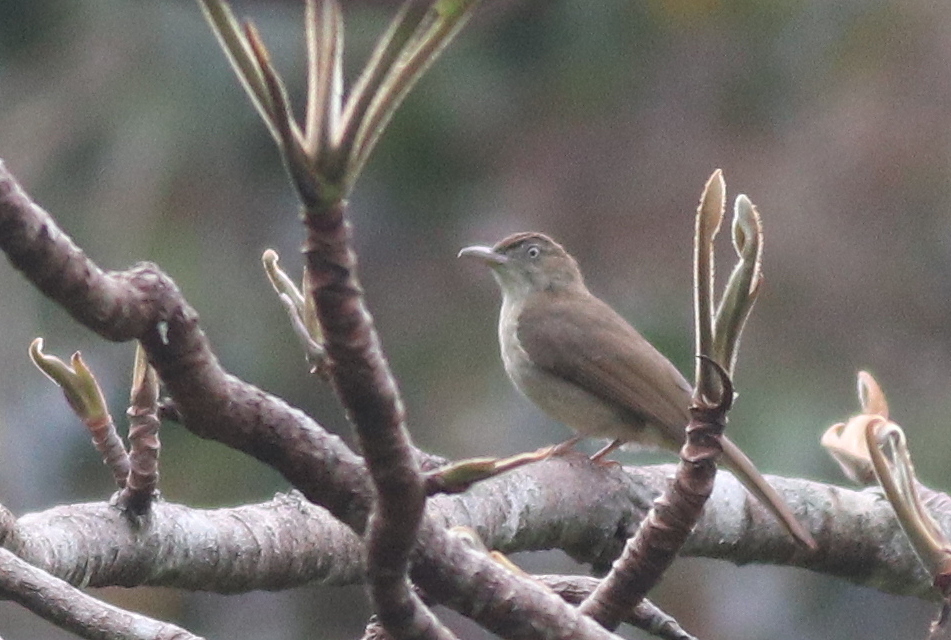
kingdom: Animalia
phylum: Chordata
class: Aves
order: Passeriformes
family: Pycnonotidae
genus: Iole
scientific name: Iole crypta
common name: Buff-vented bulbul
